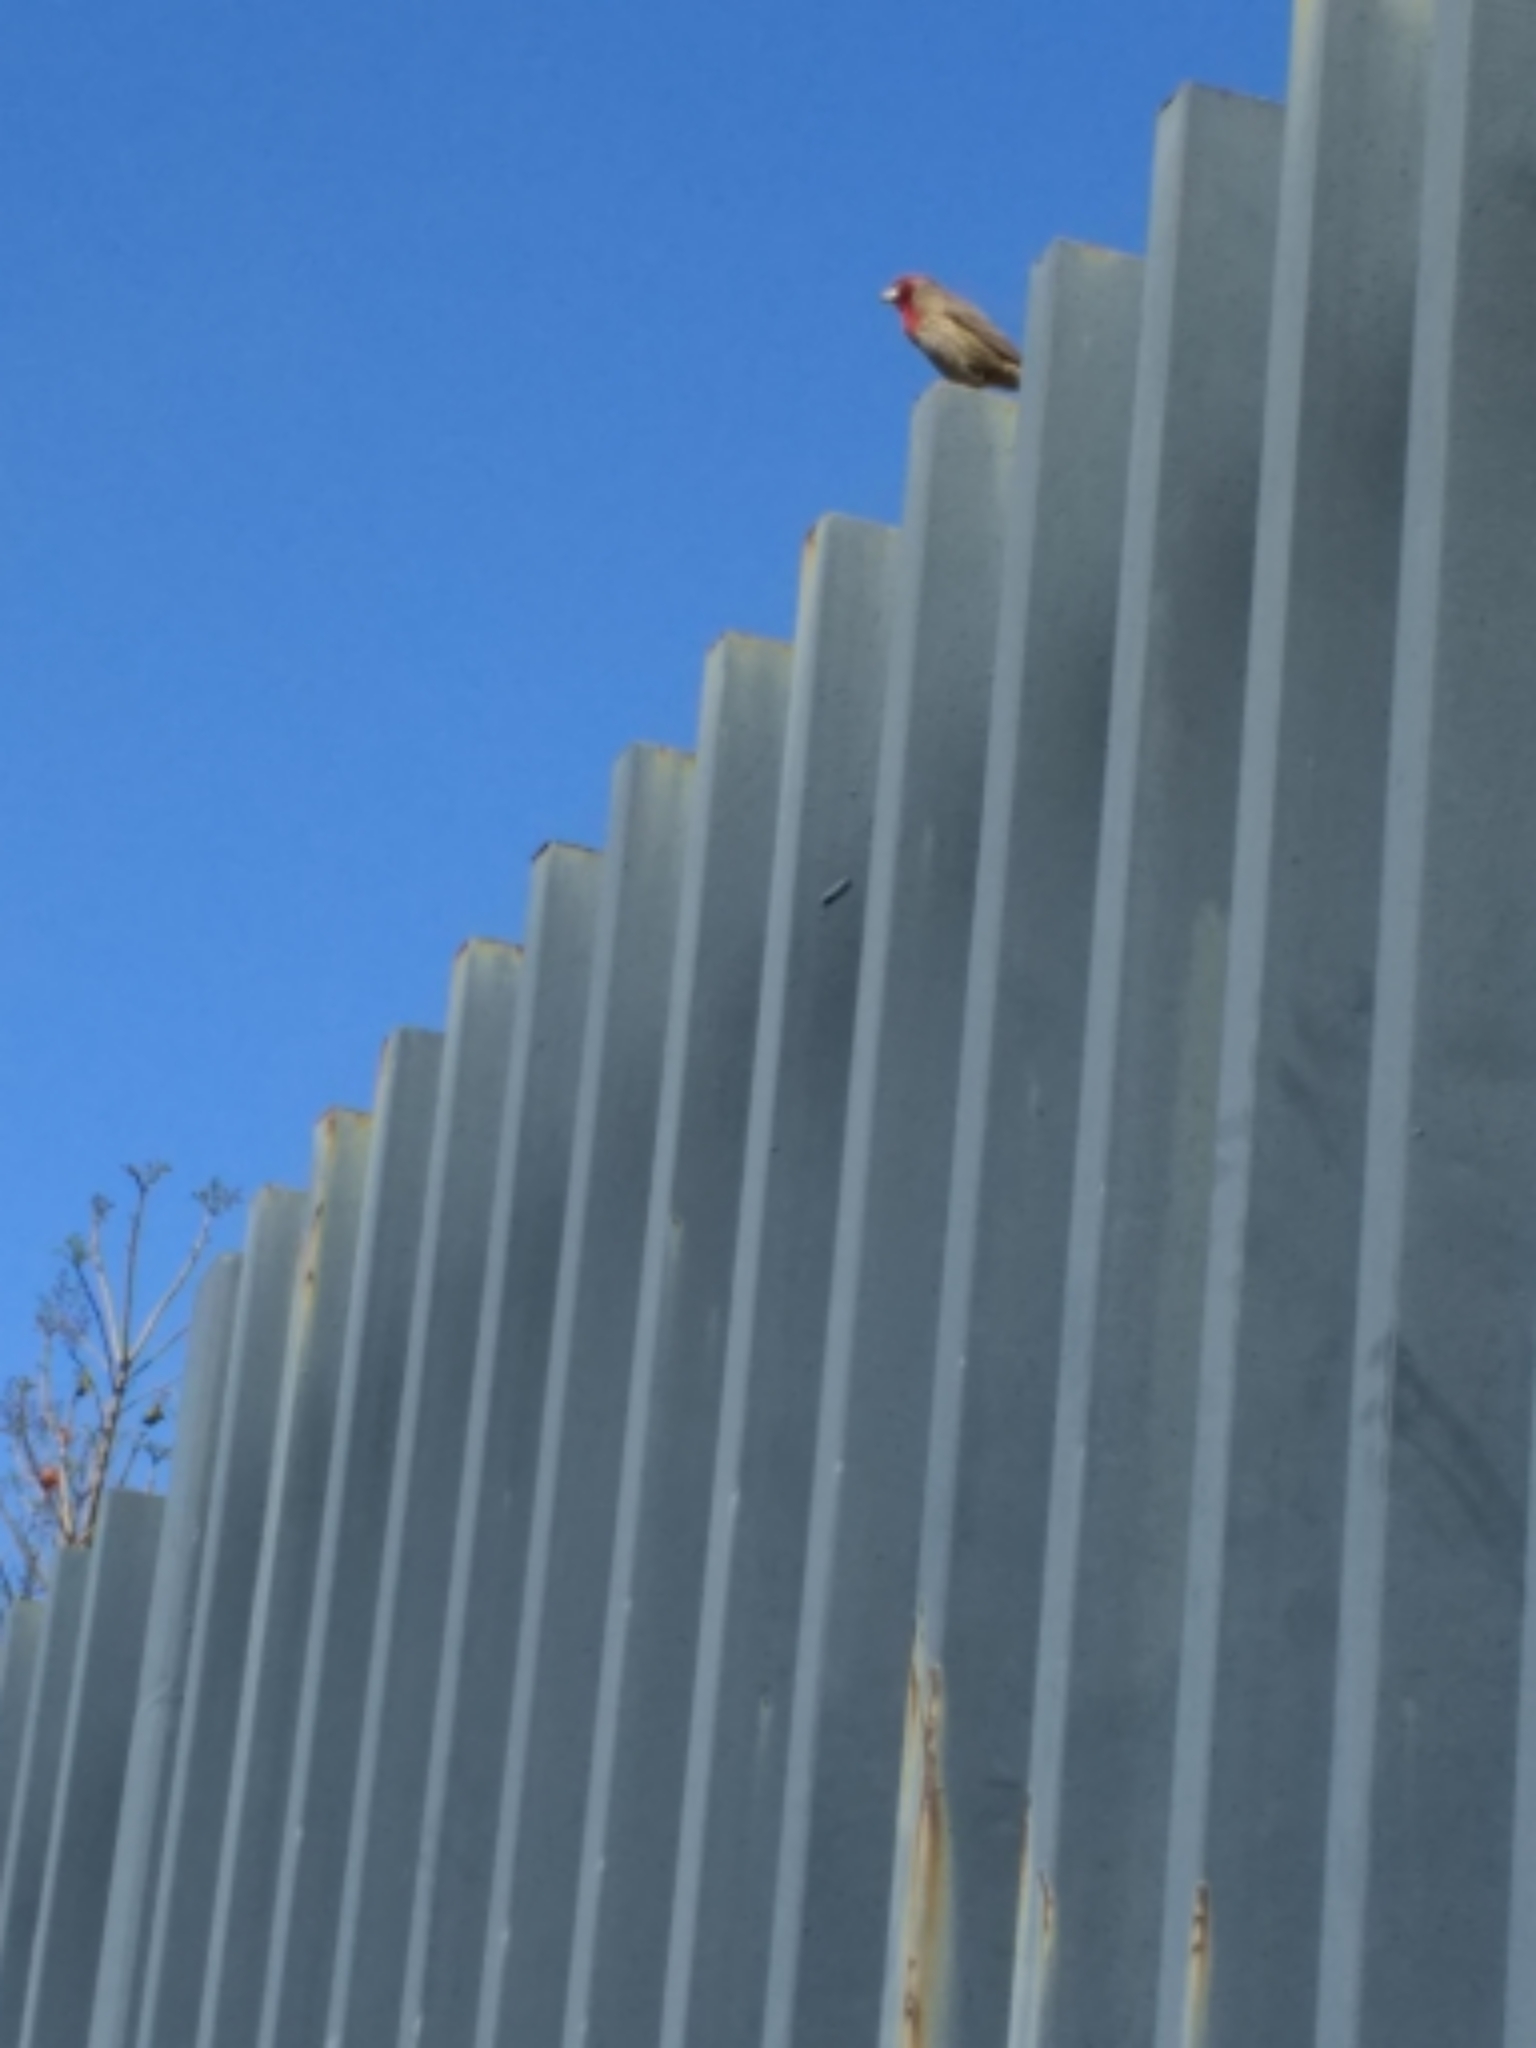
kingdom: Animalia
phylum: Chordata
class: Aves
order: Passeriformes
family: Fringillidae
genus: Haemorhous
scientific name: Haemorhous mexicanus
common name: House finch
